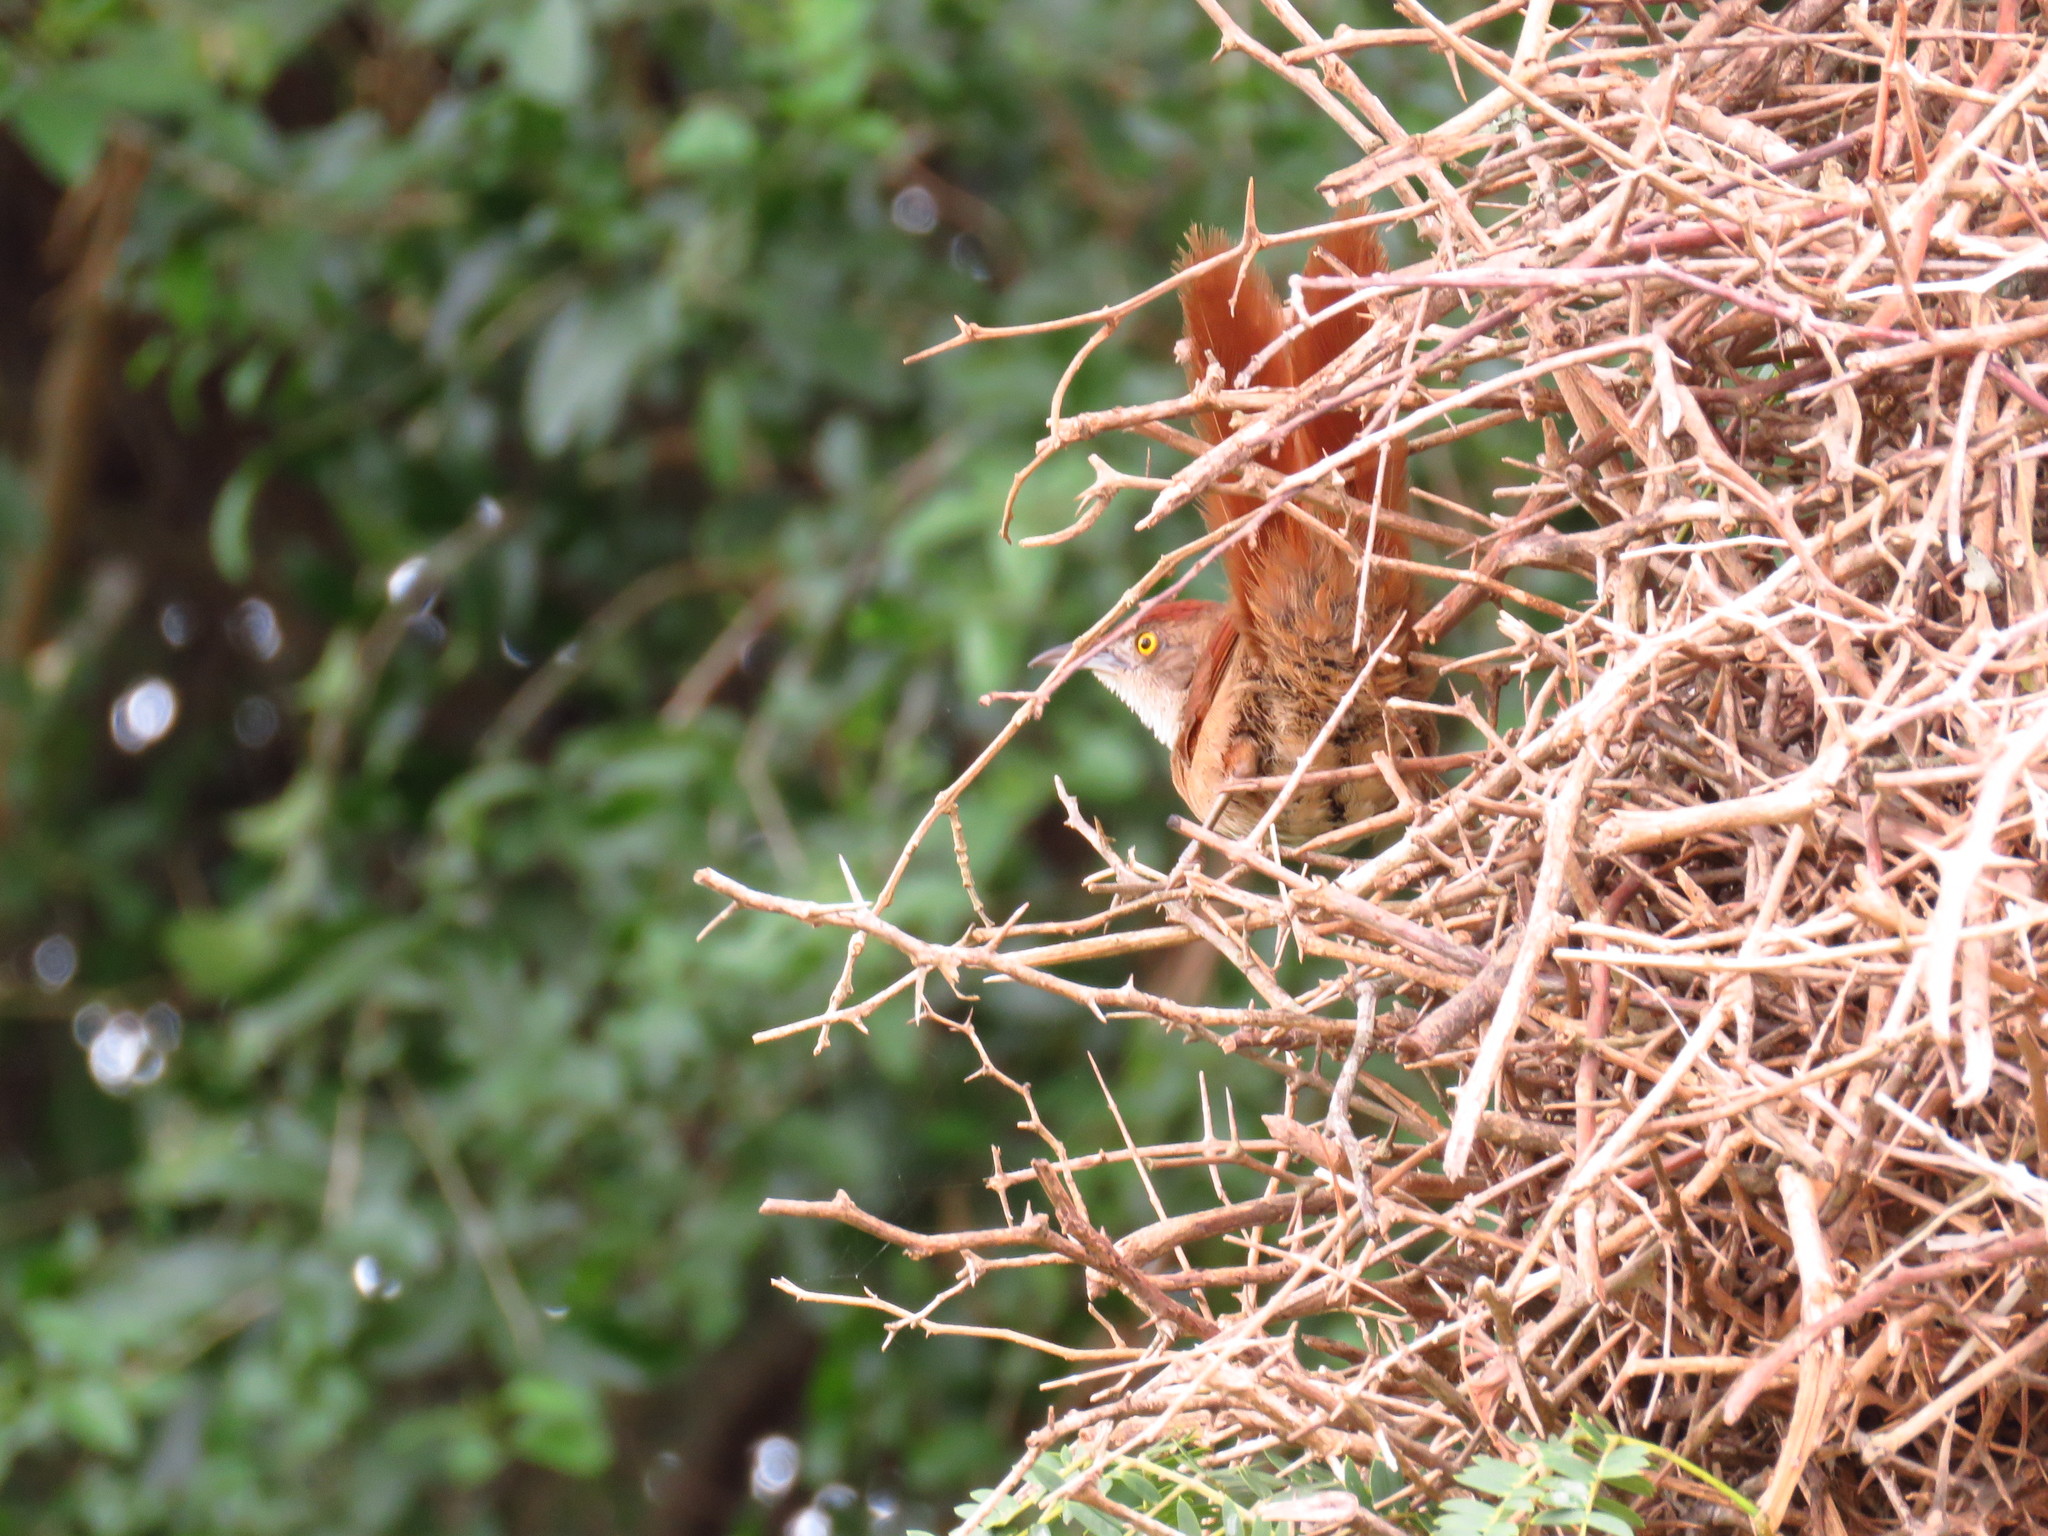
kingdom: Animalia
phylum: Chordata
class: Aves
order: Passeriformes
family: Furnariidae
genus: Phacellodomus
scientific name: Phacellodomus ruber
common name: Greater thornbird
